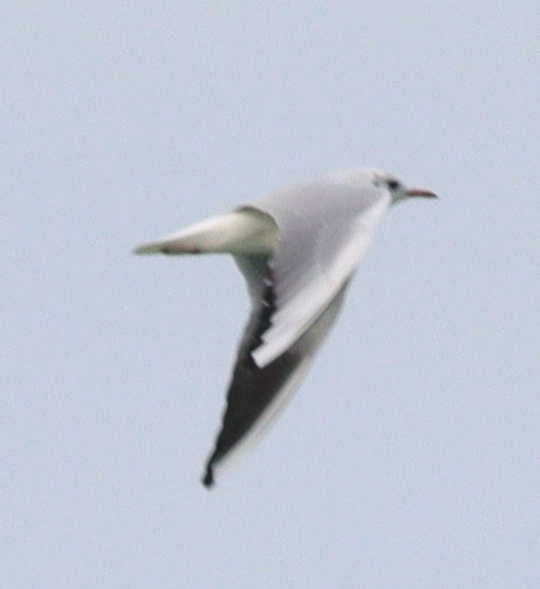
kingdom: Animalia
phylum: Chordata
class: Aves
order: Charadriiformes
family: Laridae
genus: Chroicocephalus
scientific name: Chroicocephalus ridibundus
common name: Black-headed gull
